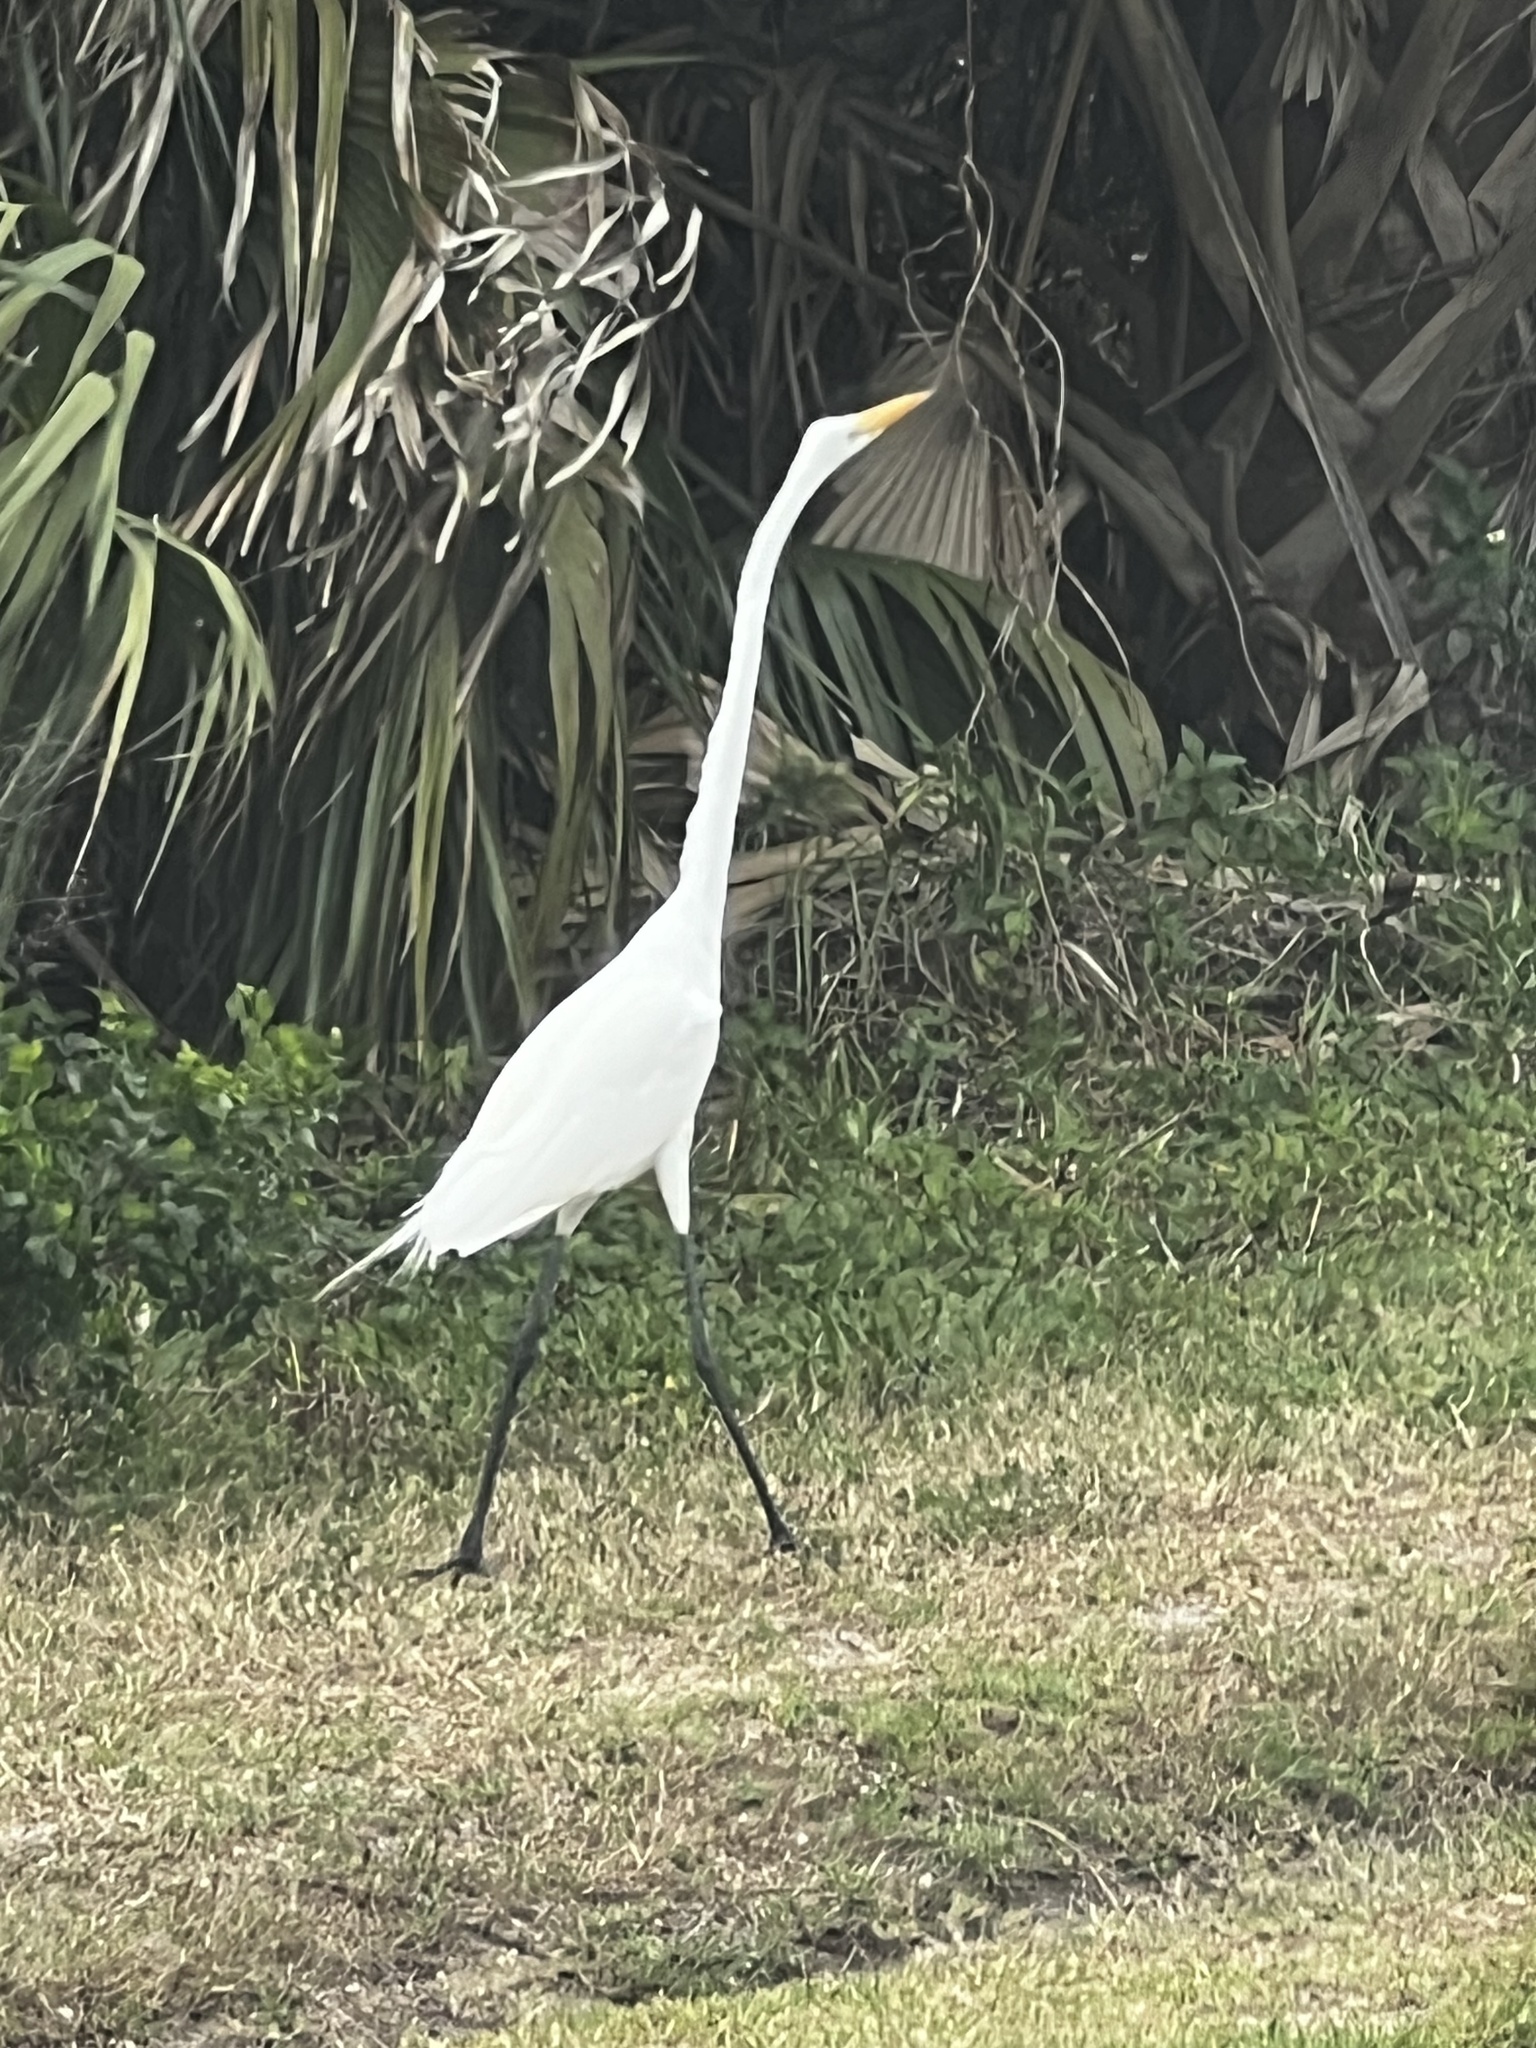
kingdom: Animalia
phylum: Chordata
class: Aves
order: Pelecaniformes
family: Ardeidae
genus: Ardea
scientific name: Ardea alba
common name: Great egret
